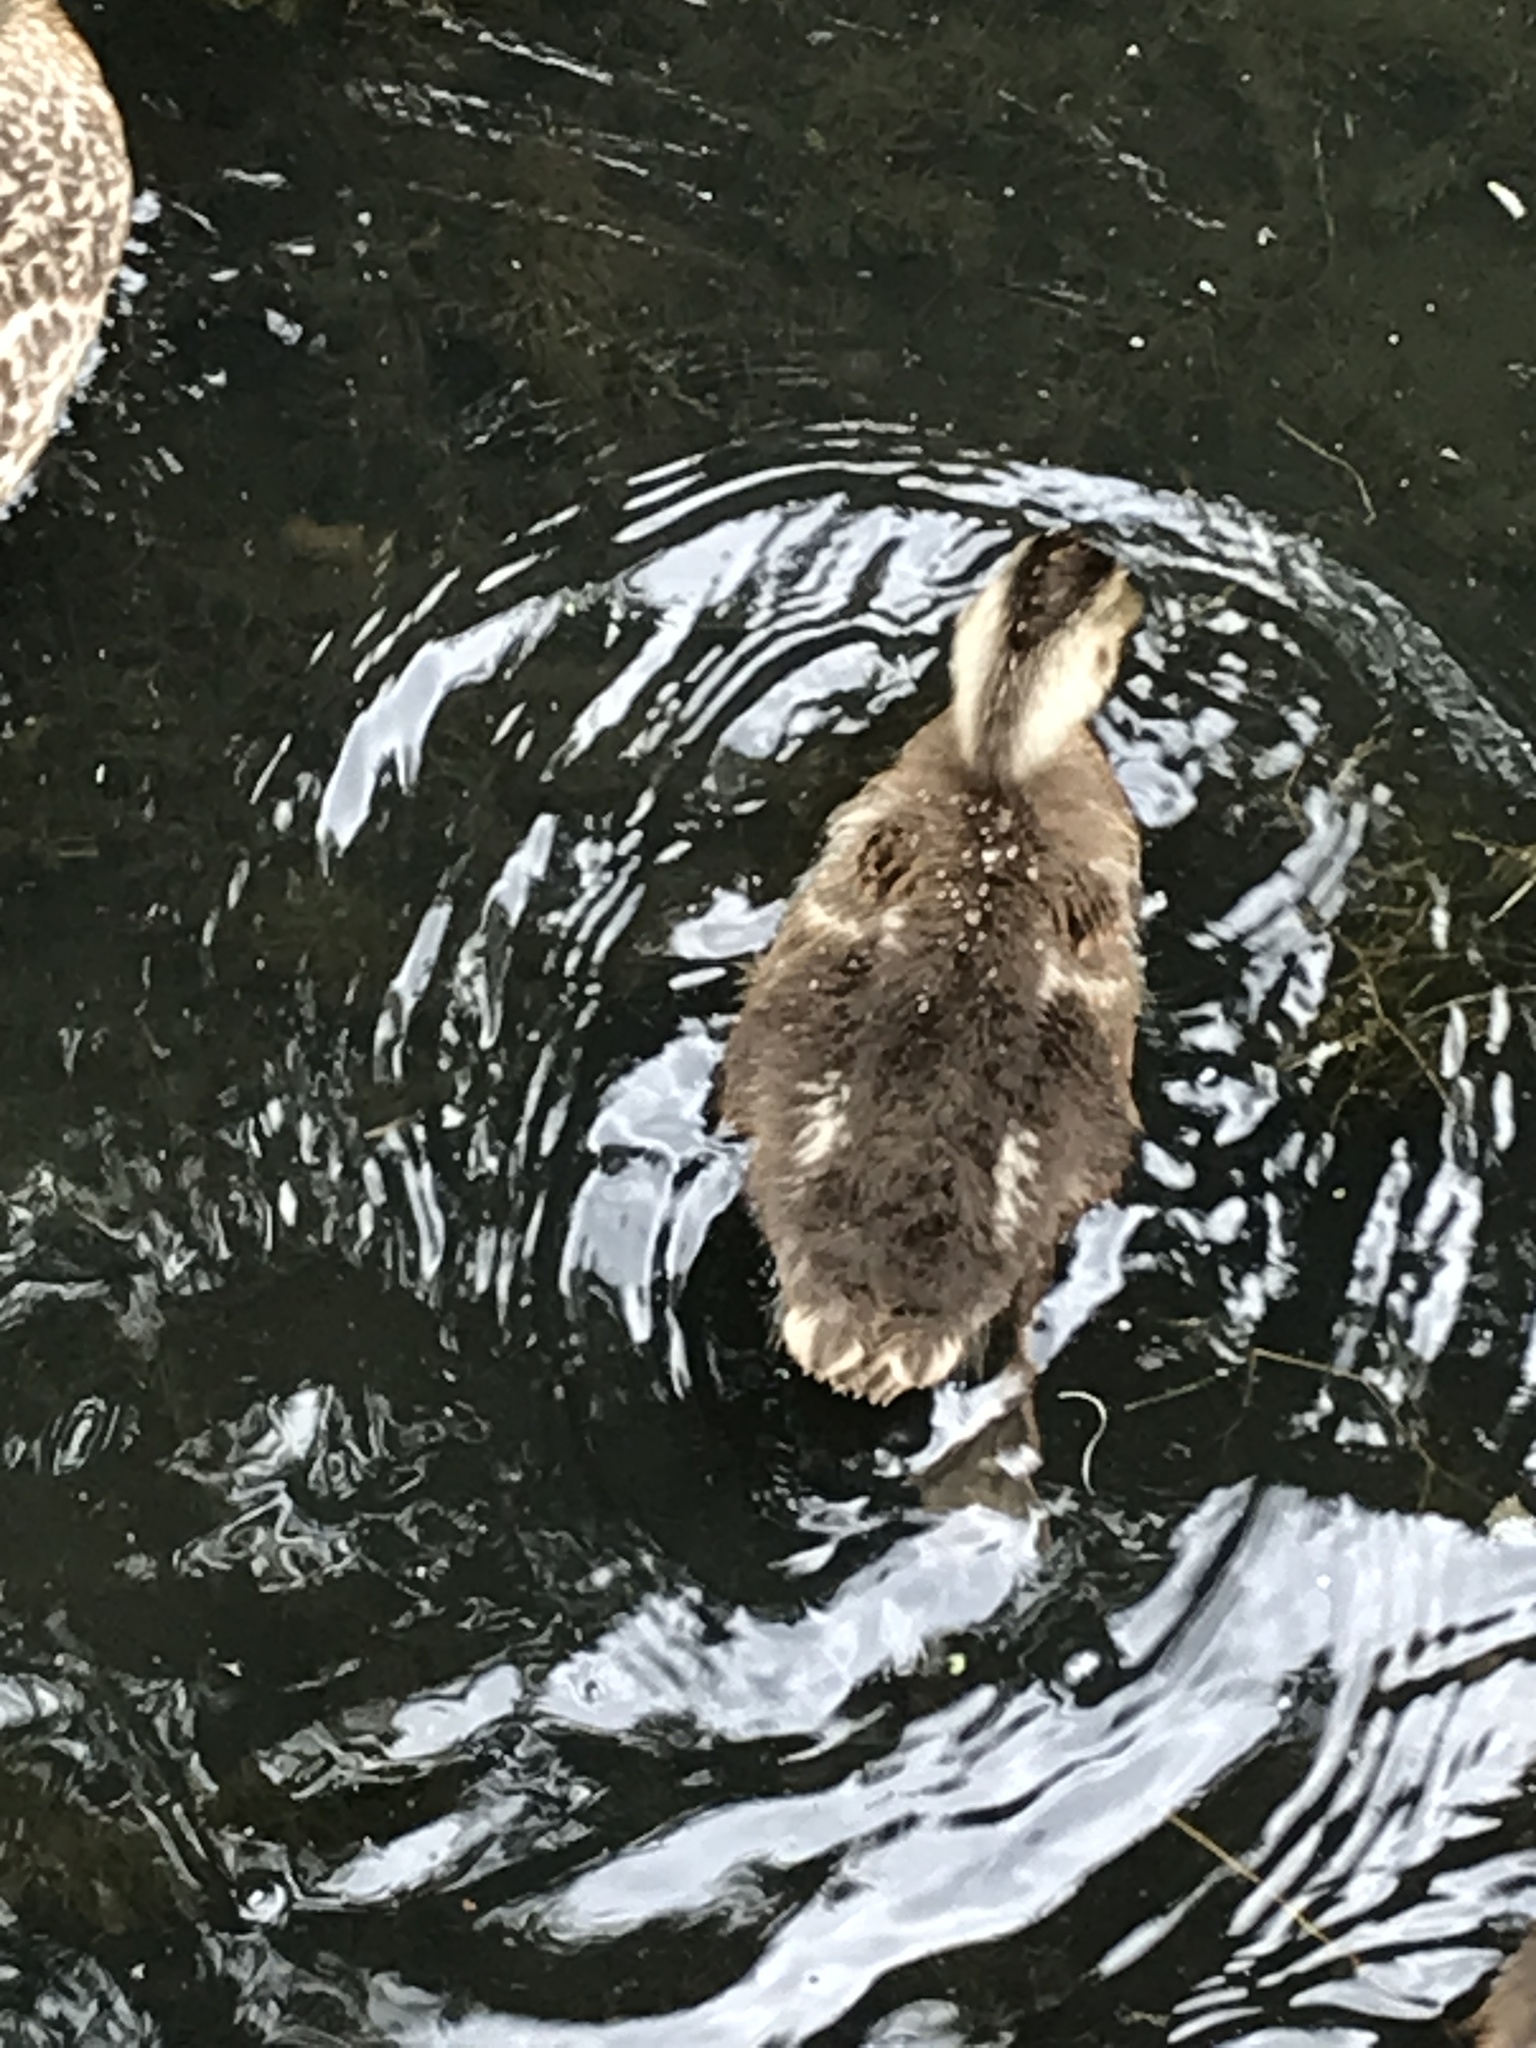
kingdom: Animalia
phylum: Chordata
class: Aves
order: Anseriformes
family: Anatidae
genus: Anas
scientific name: Anas platyrhynchos
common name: Mallard
